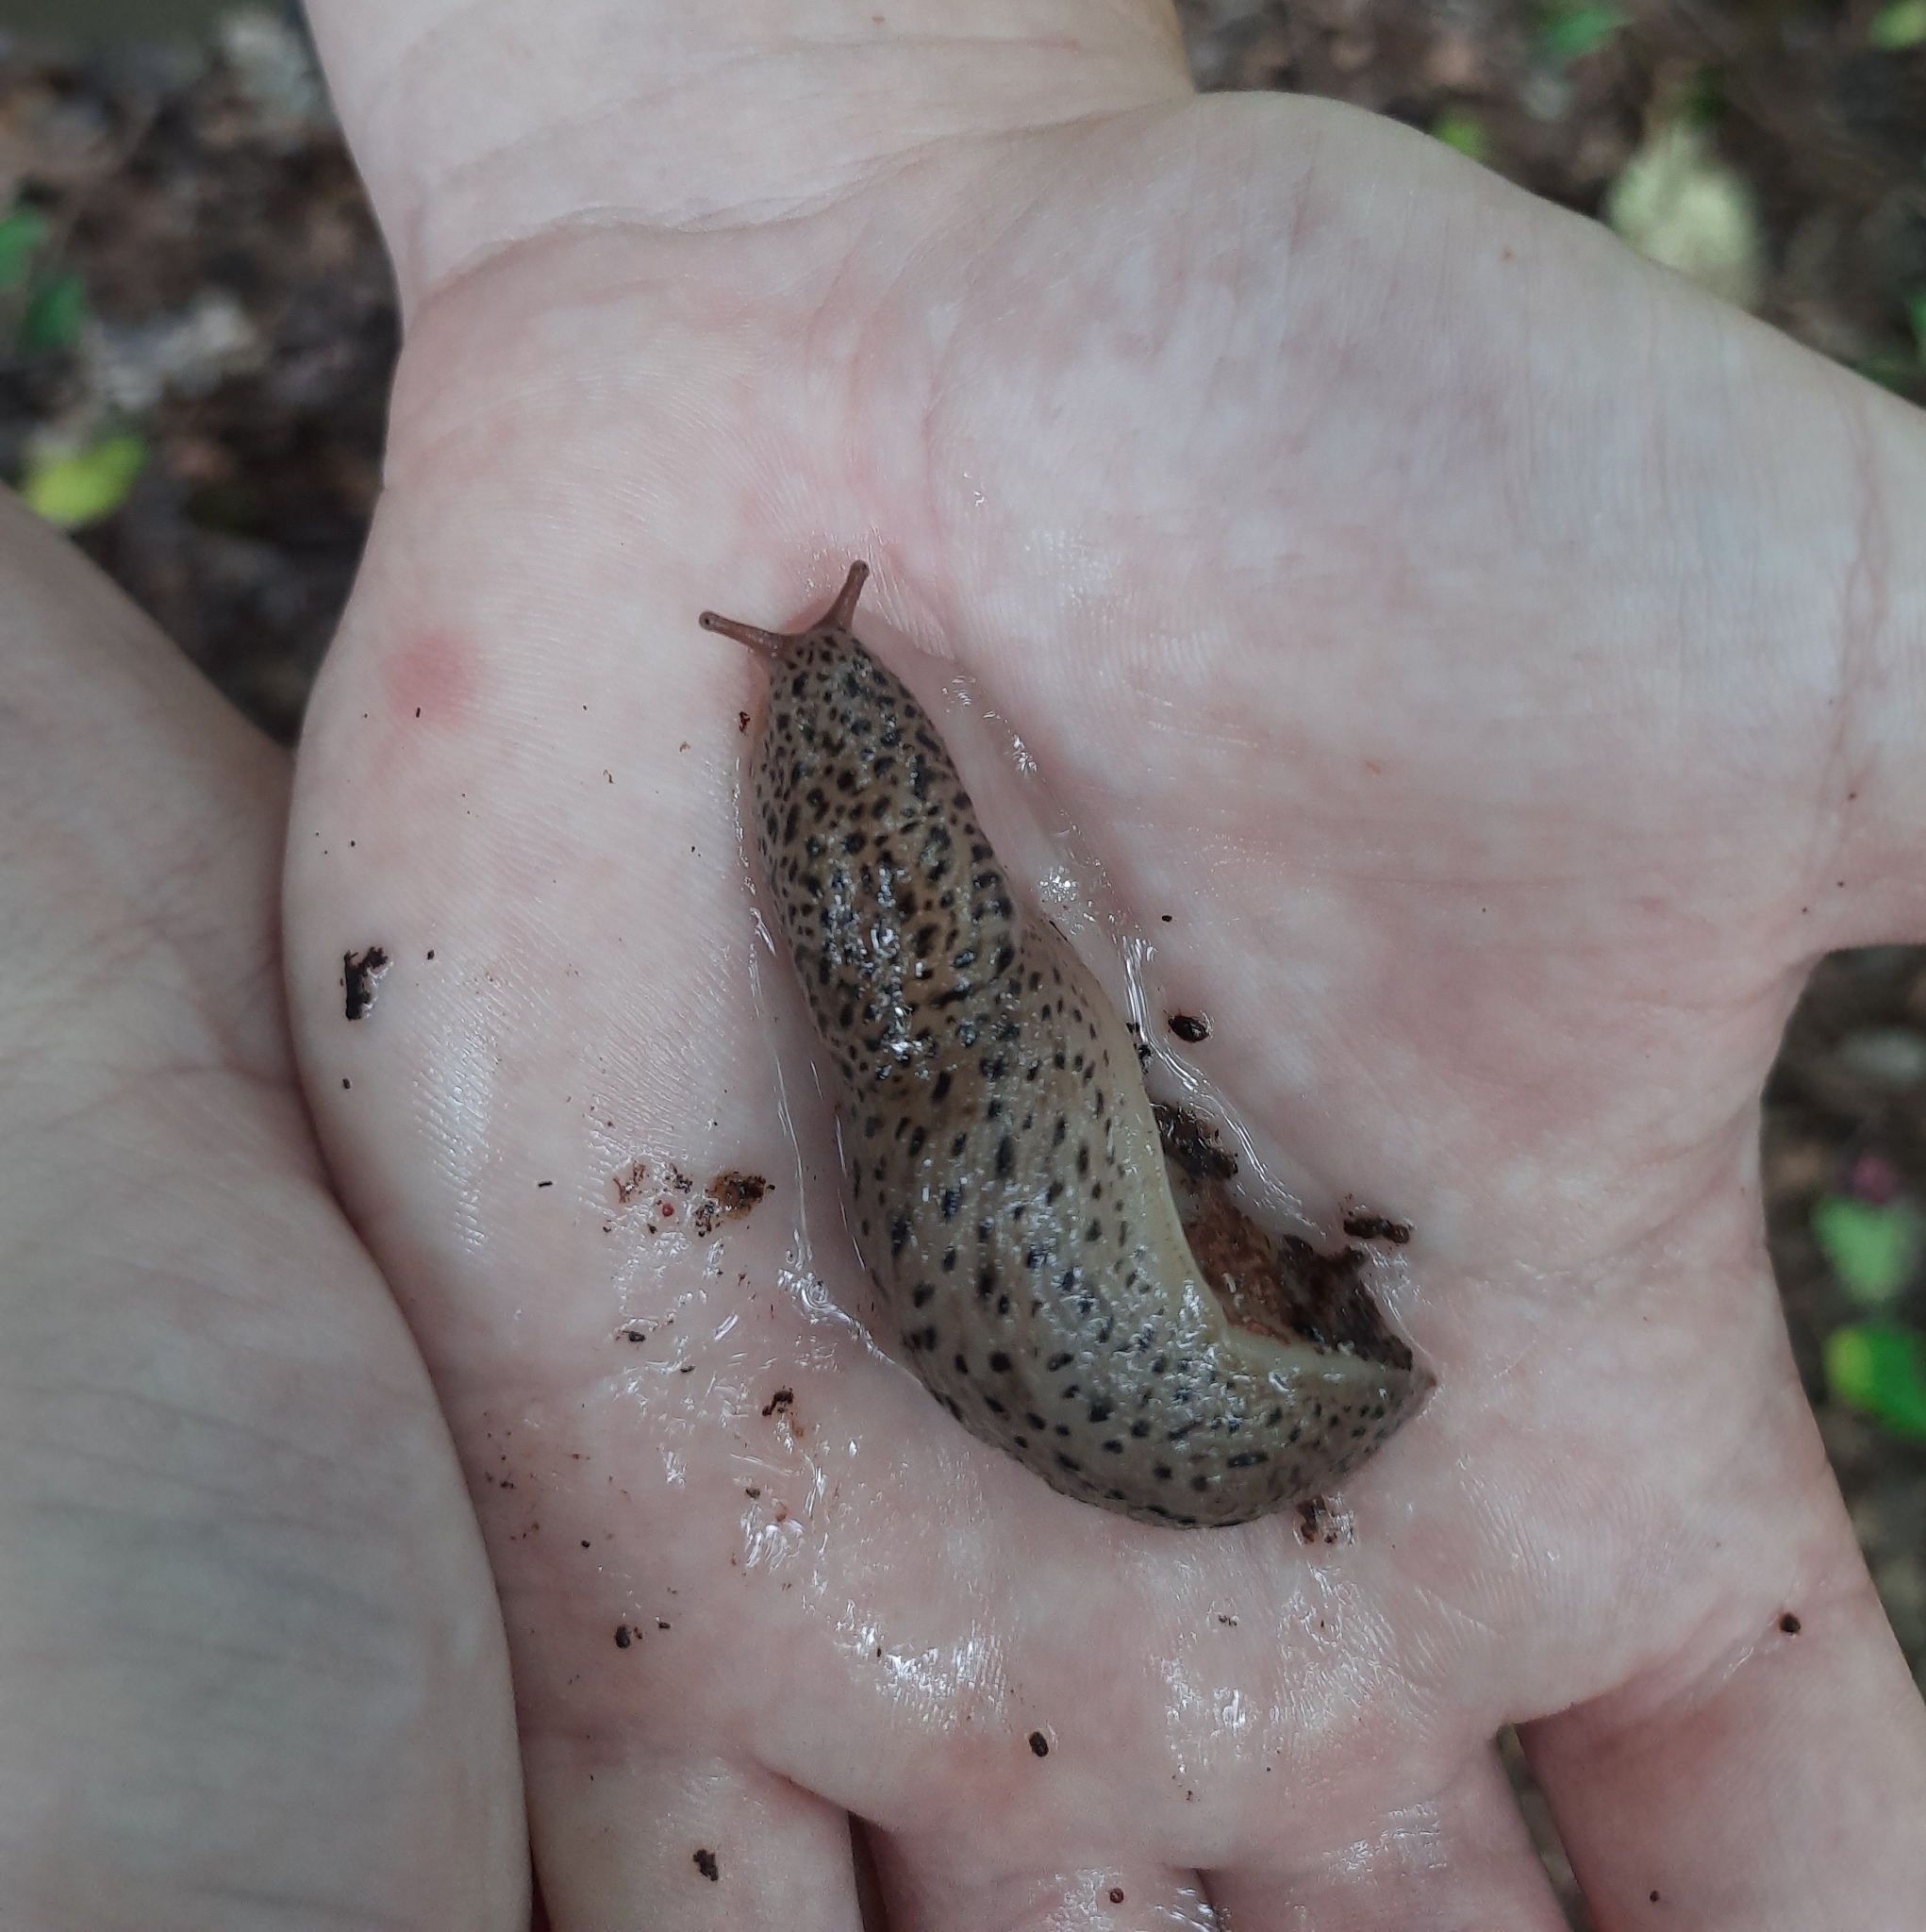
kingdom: Animalia
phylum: Mollusca
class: Gastropoda
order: Stylommatophora
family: Limacidae
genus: Limax
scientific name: Limax maximus
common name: Great grey slug
